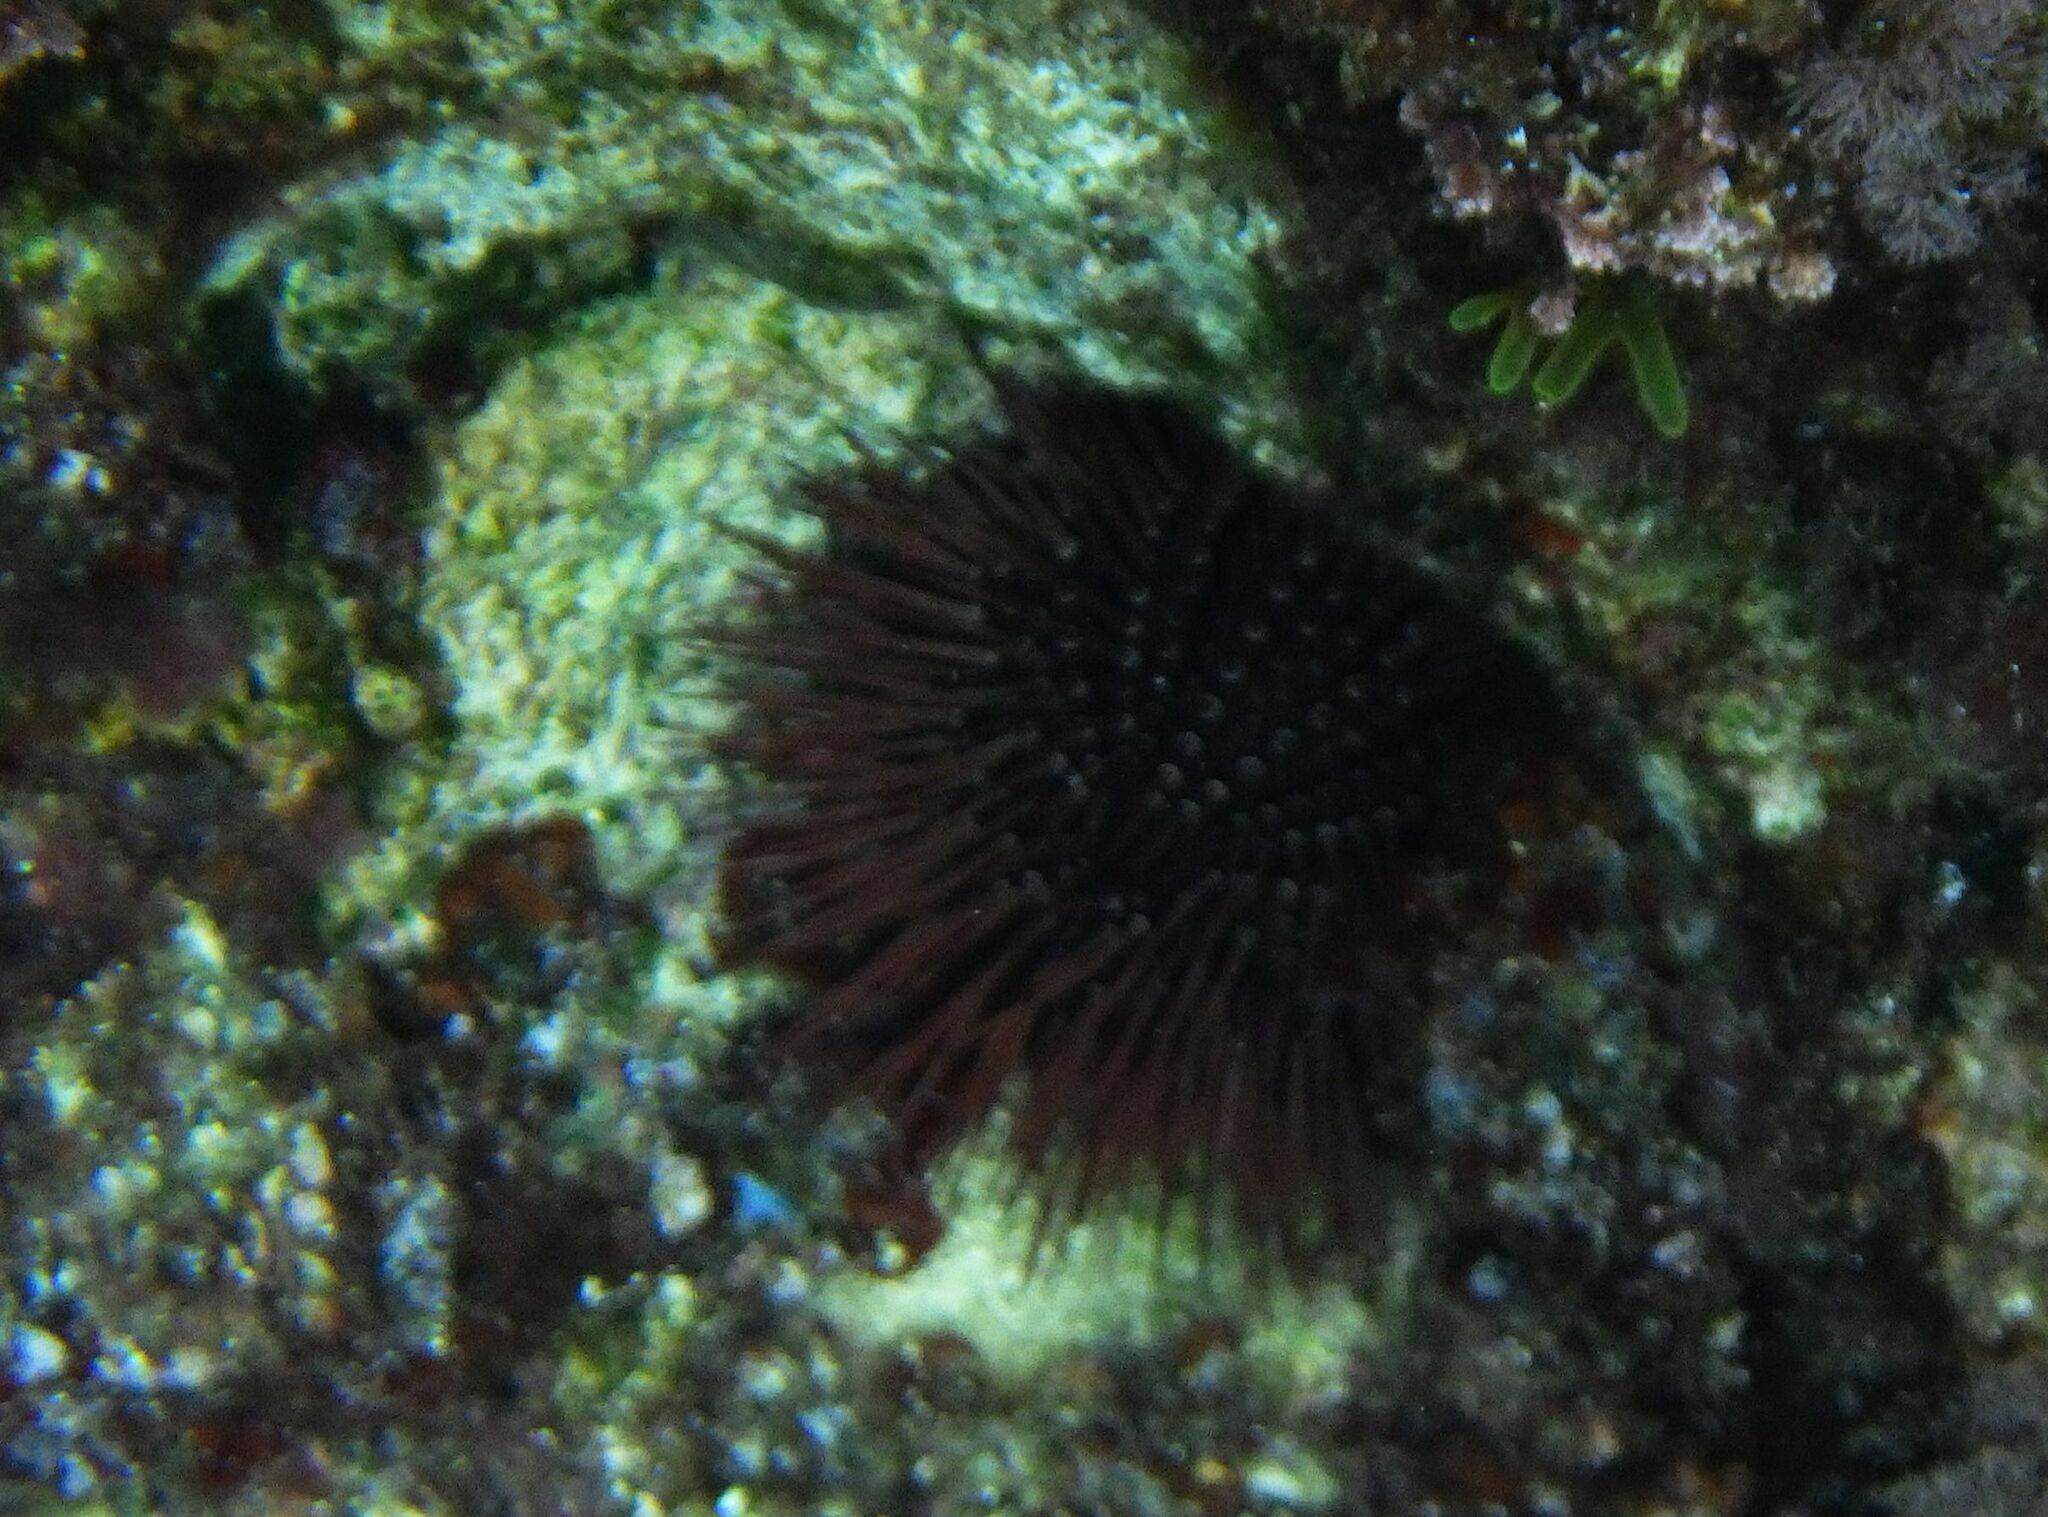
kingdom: Animalia
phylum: Echinodermata
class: Echinoidea
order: Camarodonta
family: Parechinidae
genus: Paracentrotus
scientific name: Paracentrotus lividus
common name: Purple sea urchin
